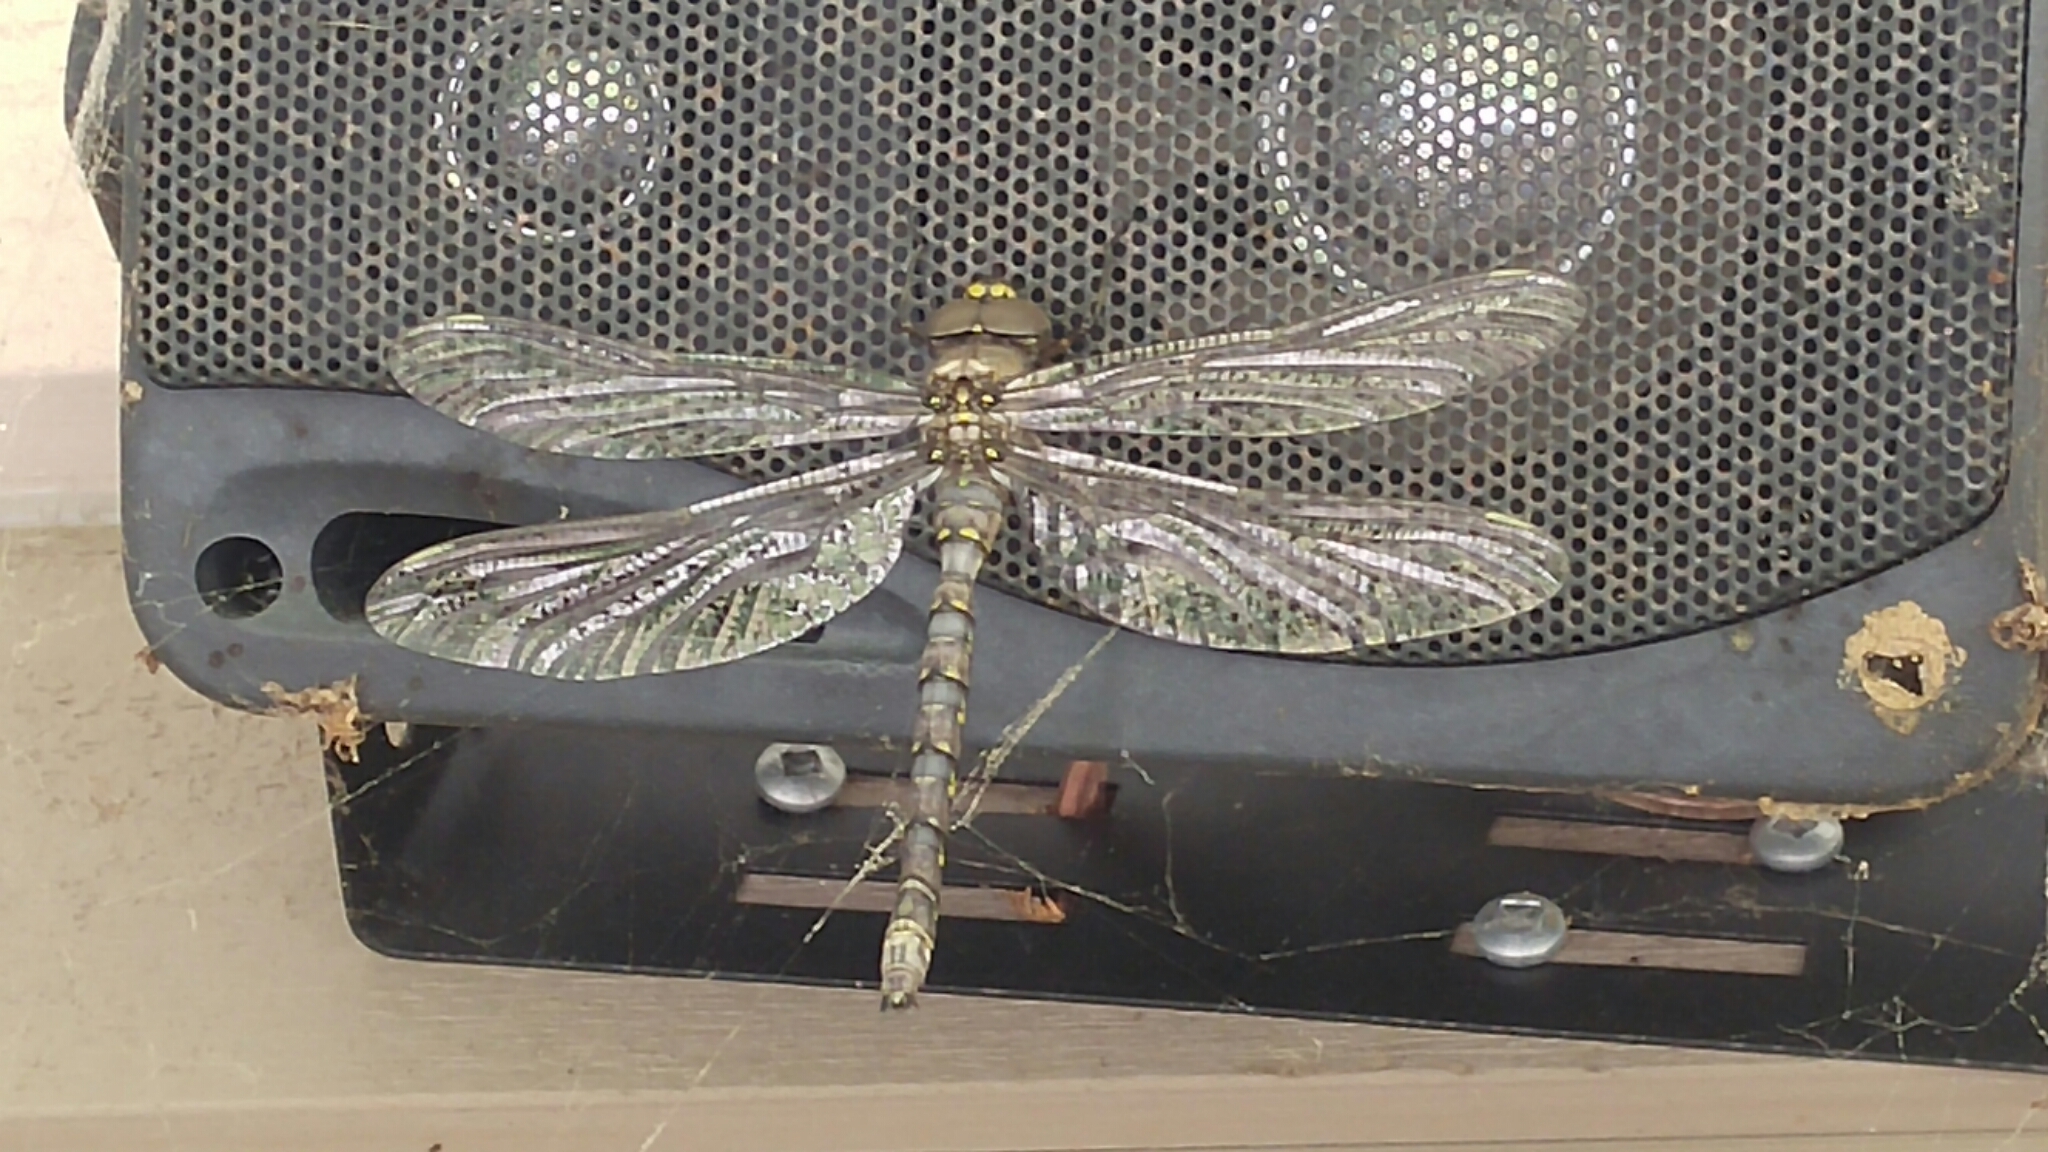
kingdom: Animalia
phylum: Arthropoda
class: Insecta
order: Odonata
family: Aeshnidae
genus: Boyeria
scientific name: Boyeria grafiana
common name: Ocellated darner
